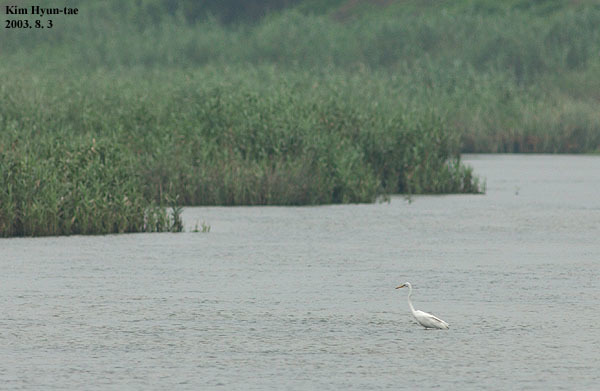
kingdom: Animalia
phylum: Chordata
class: Aves
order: Pelecaniformes
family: Ardeidae
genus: Ardea
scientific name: Ardea modesta
